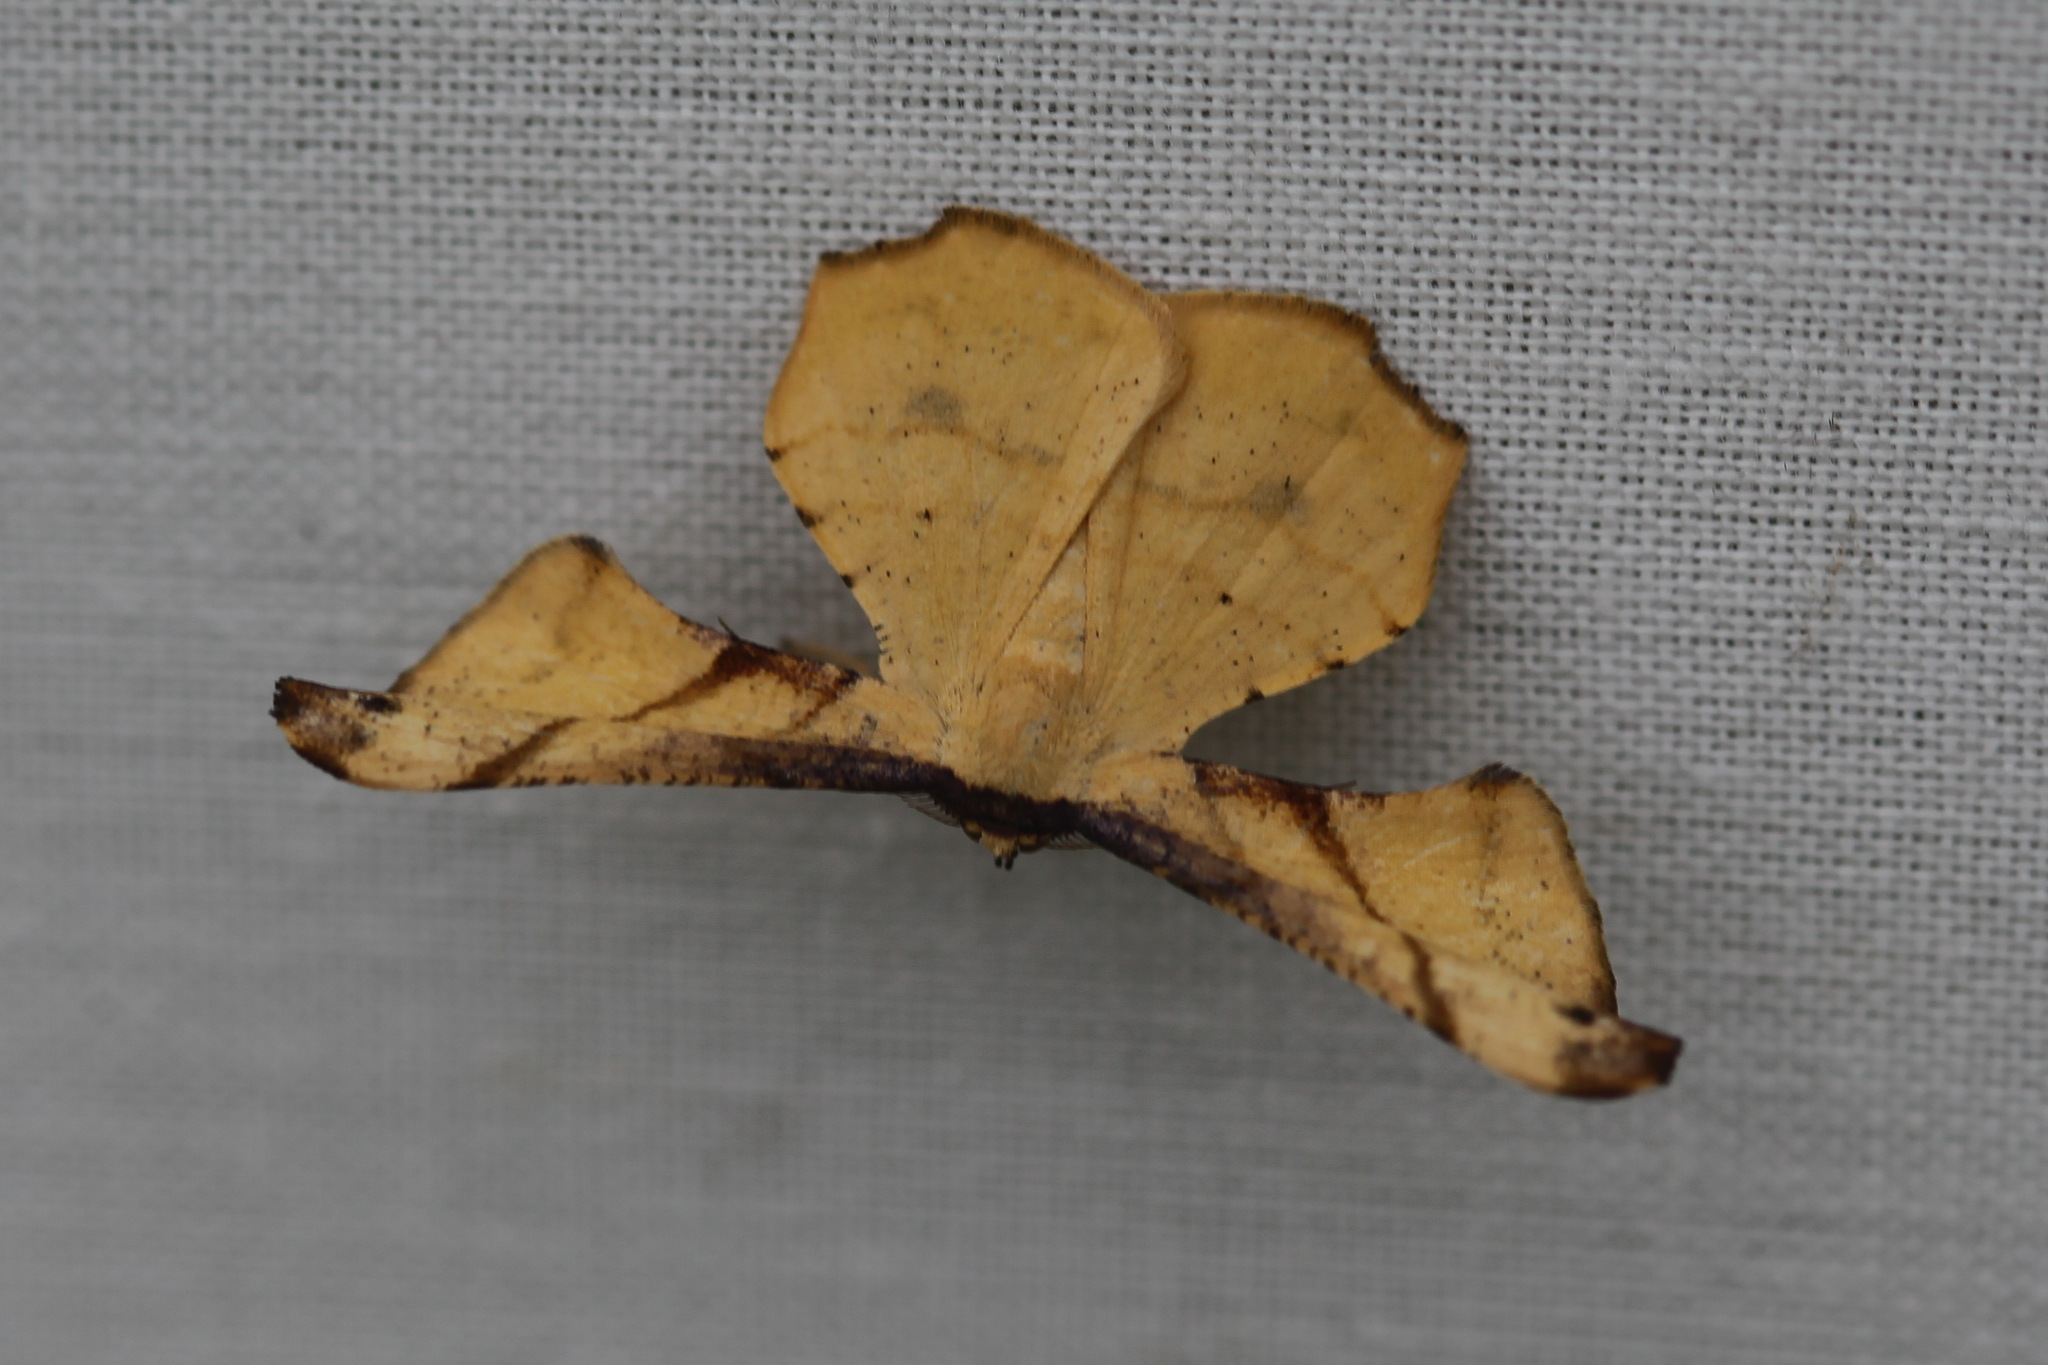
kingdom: Animalia
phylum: Arthropoda
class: Insecta
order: Lepidoptera
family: Geometridae
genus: Xenimpia
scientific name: Xenimpia erosa
